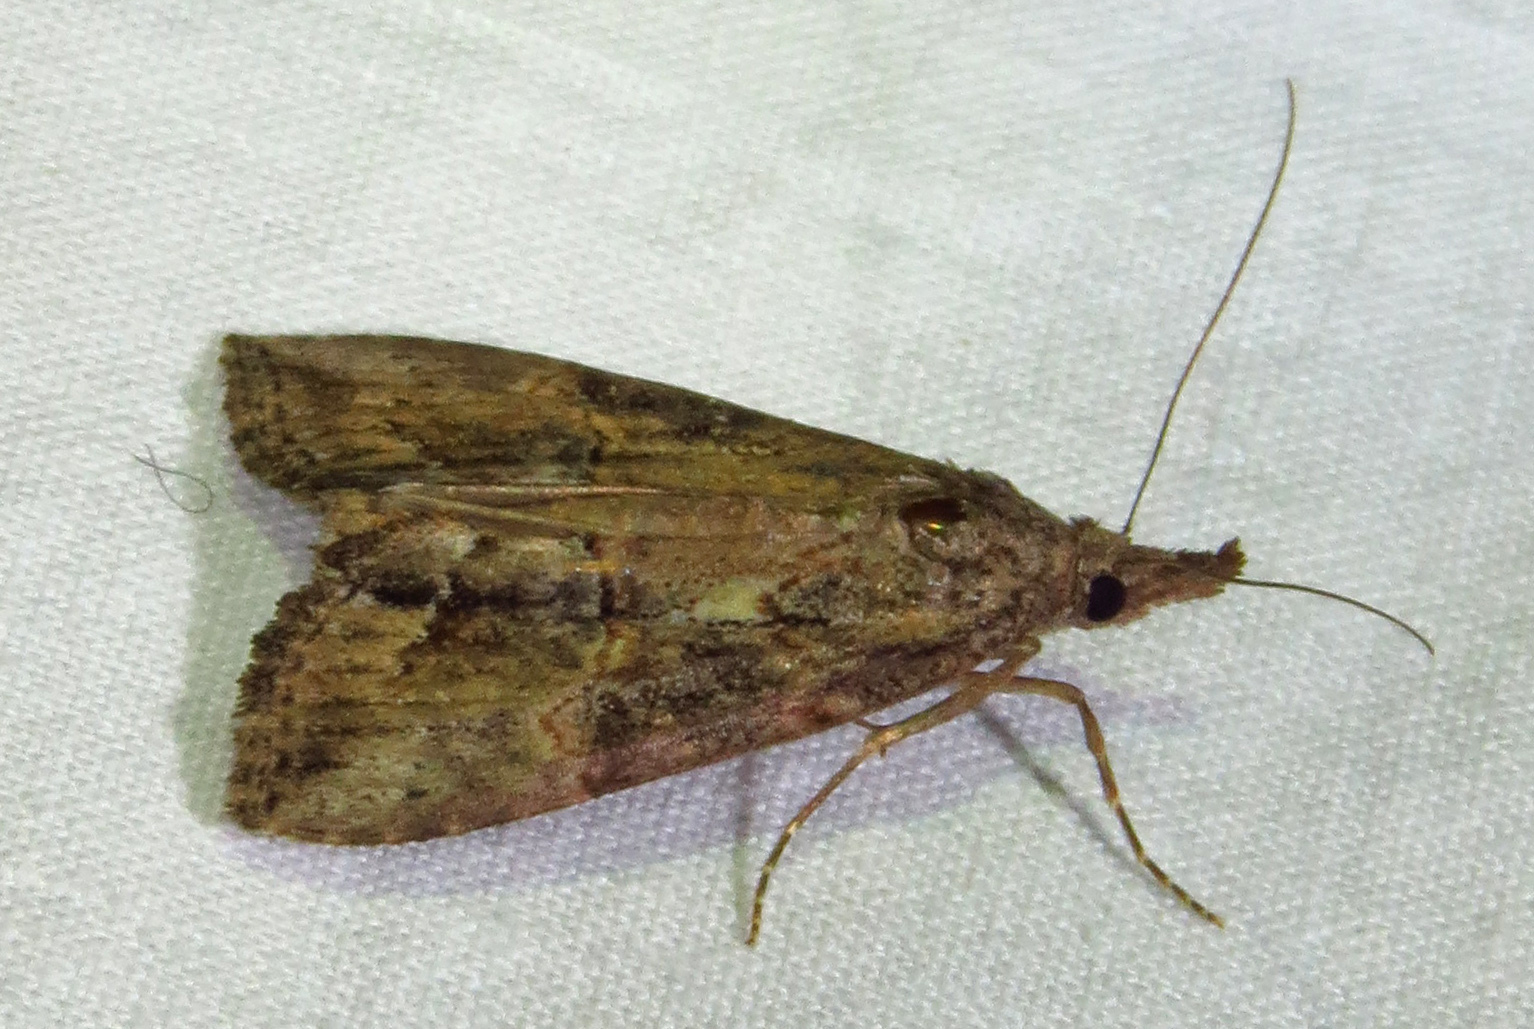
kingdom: Animalia
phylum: Arthropoda
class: Insecta
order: Lepidoptera
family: Erebidae
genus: Hypena
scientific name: Hypena scabra
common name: Green cloverworm
